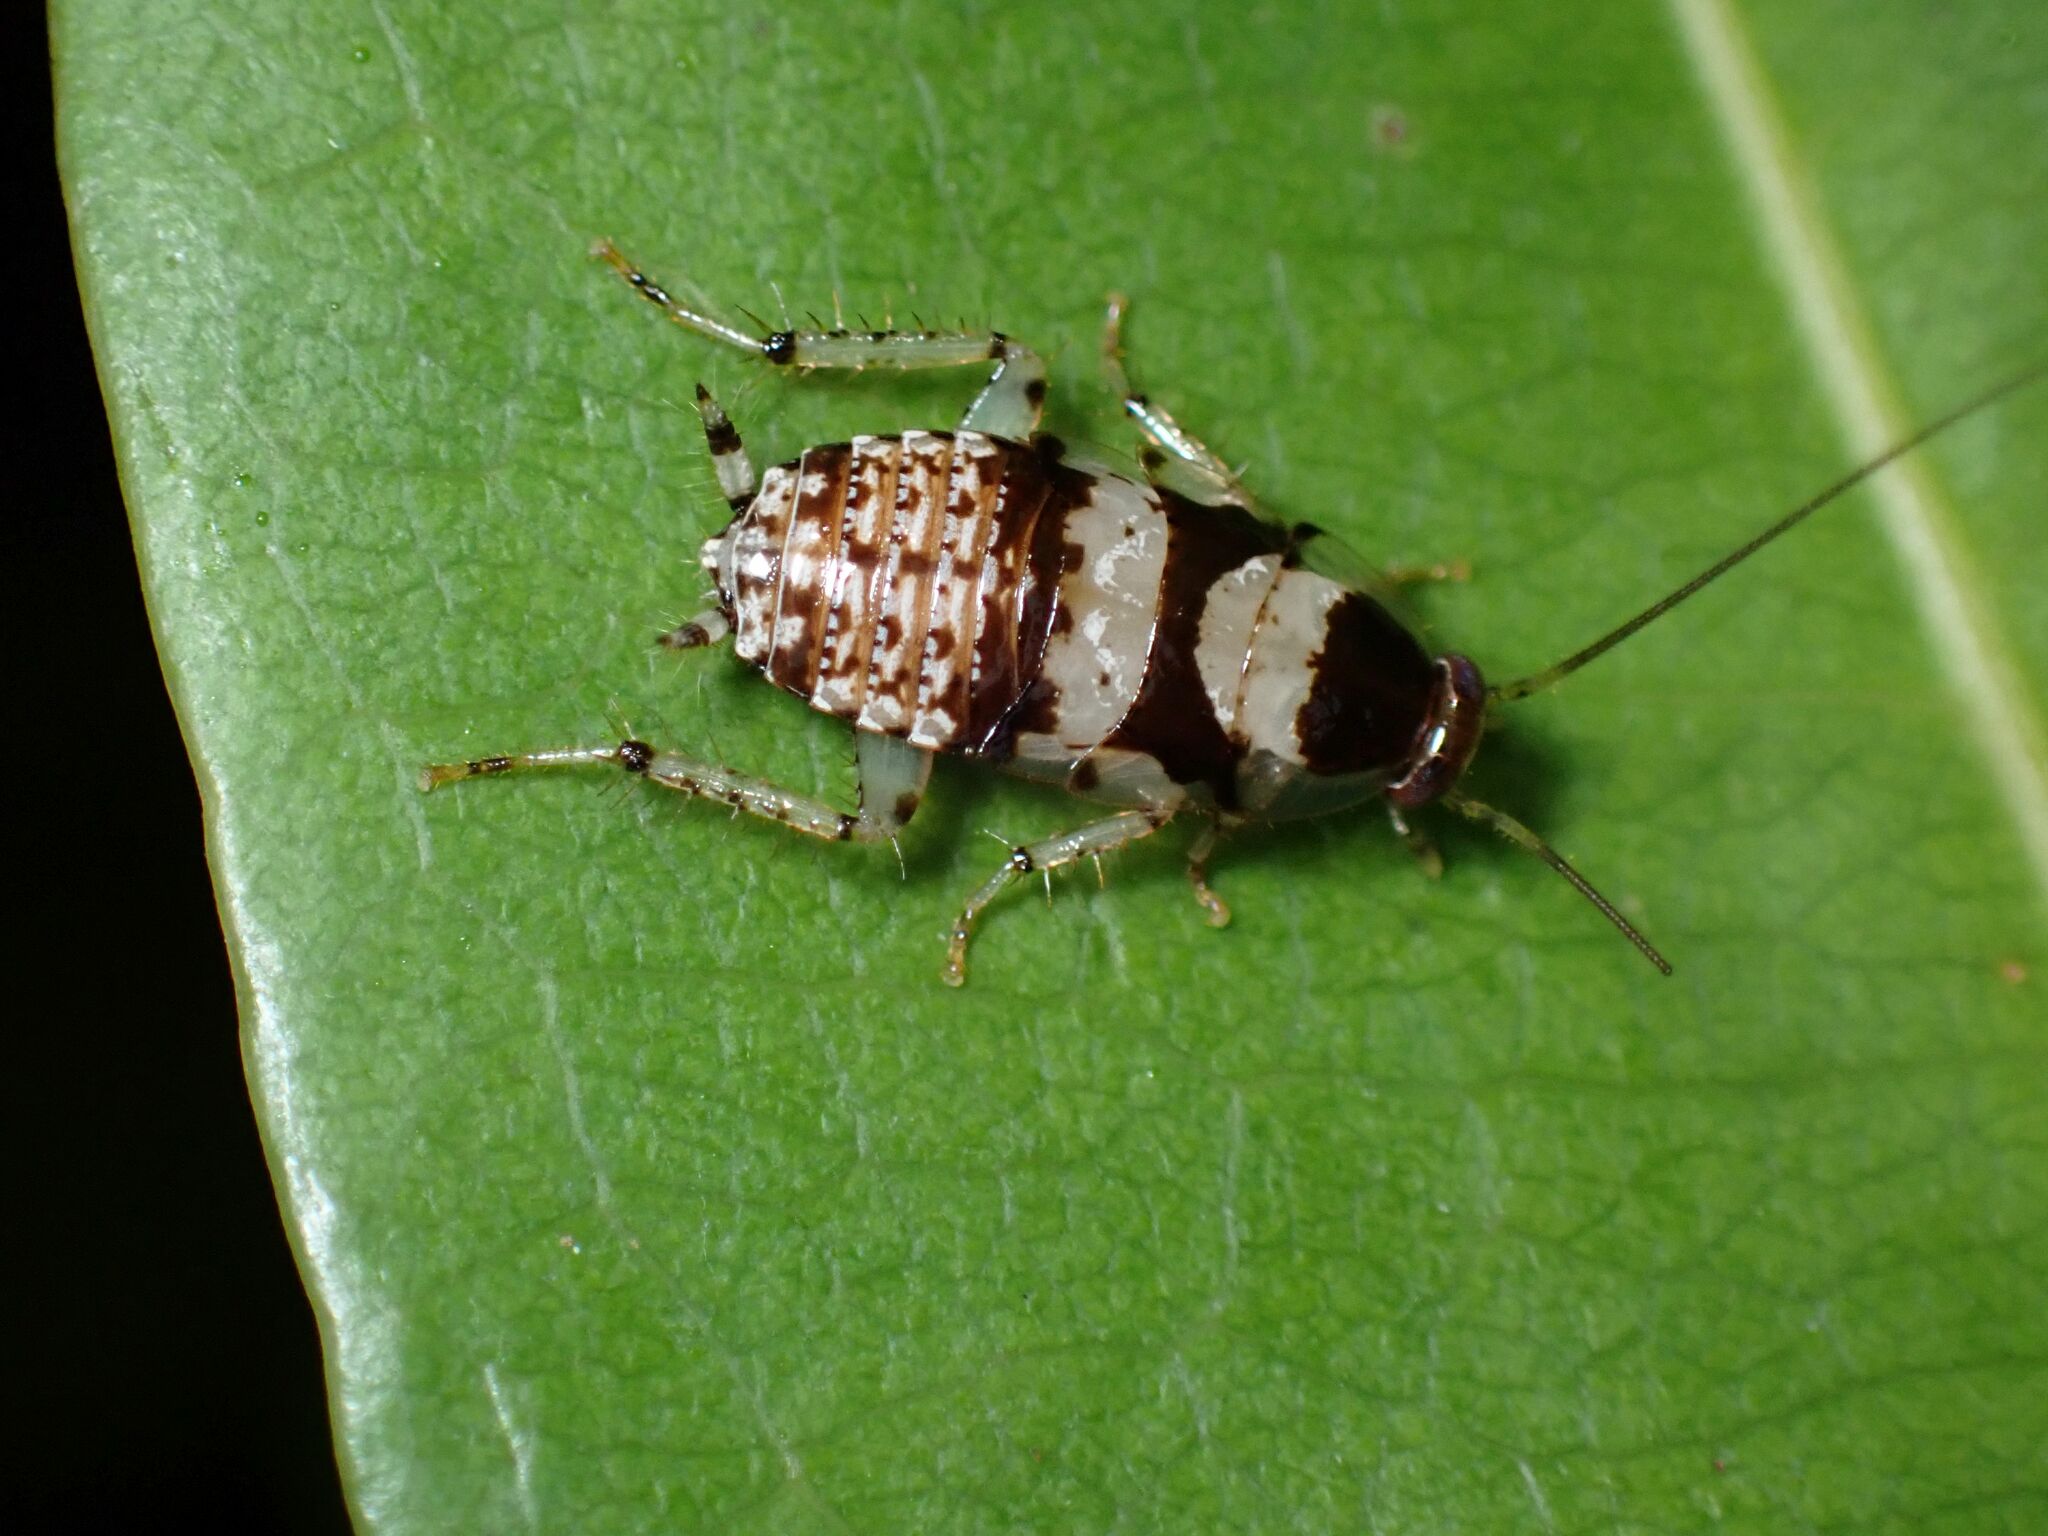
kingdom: Animalia
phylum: Arthropoda
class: Insecta
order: Blattodea
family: Ectobiidae
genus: Balta
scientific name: Balta notulata
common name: Cockroach
